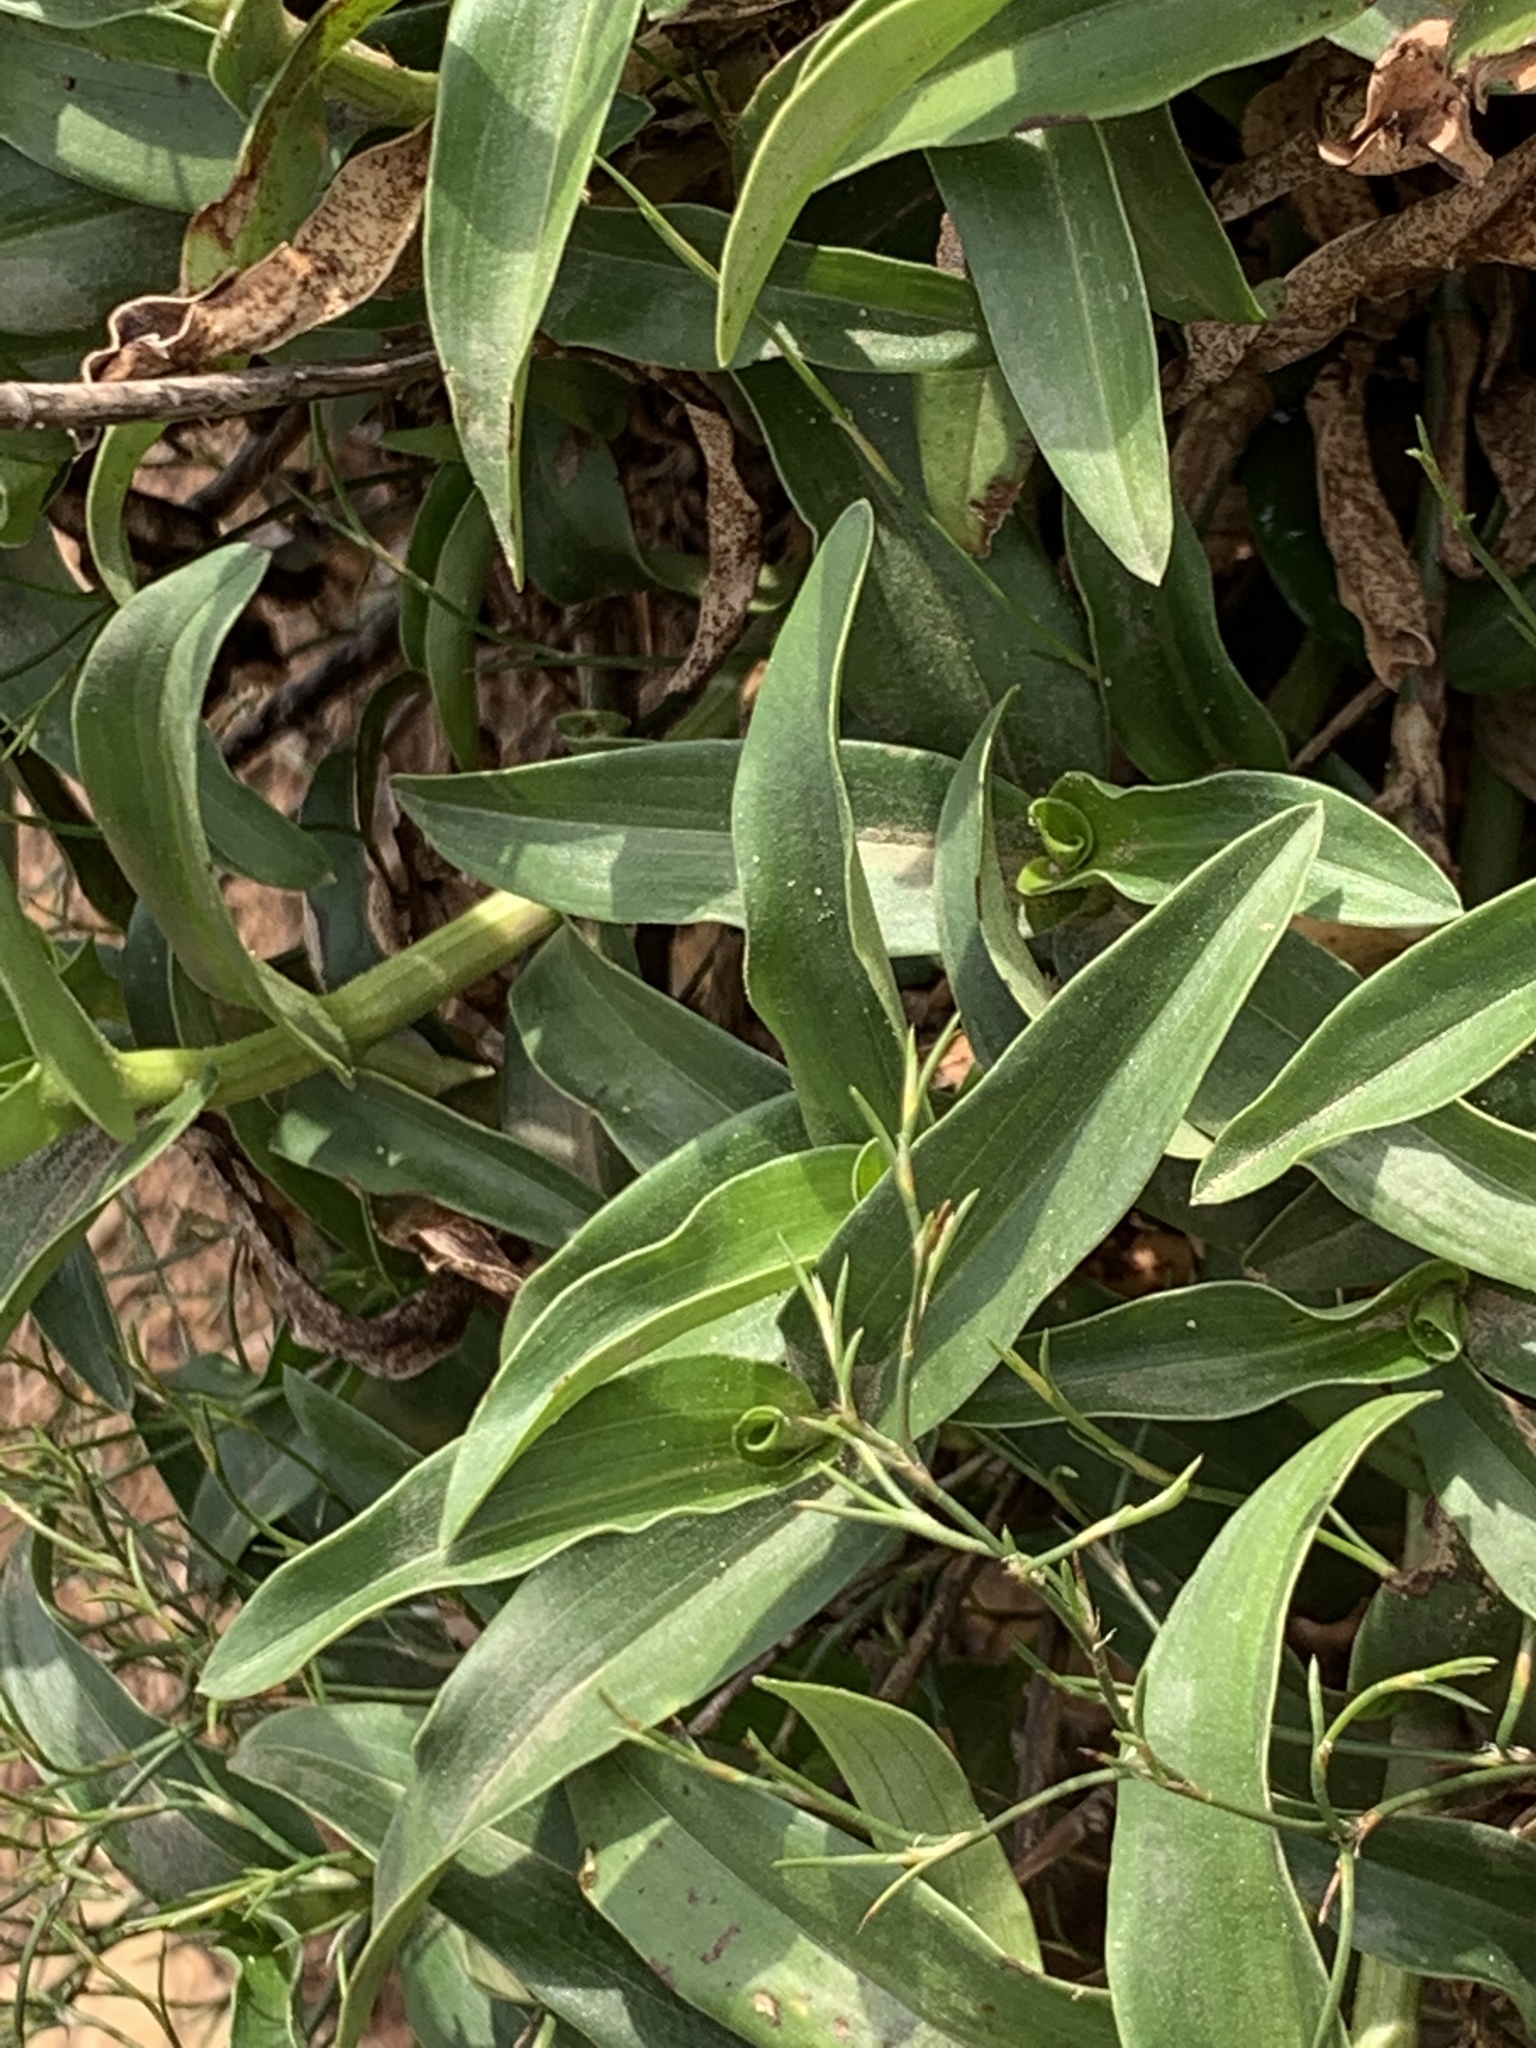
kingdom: Plantae
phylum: Tracheophyta
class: Liliopsida
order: Commelinales
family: Commelinaceae
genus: Commelina
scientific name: Commelina africana
